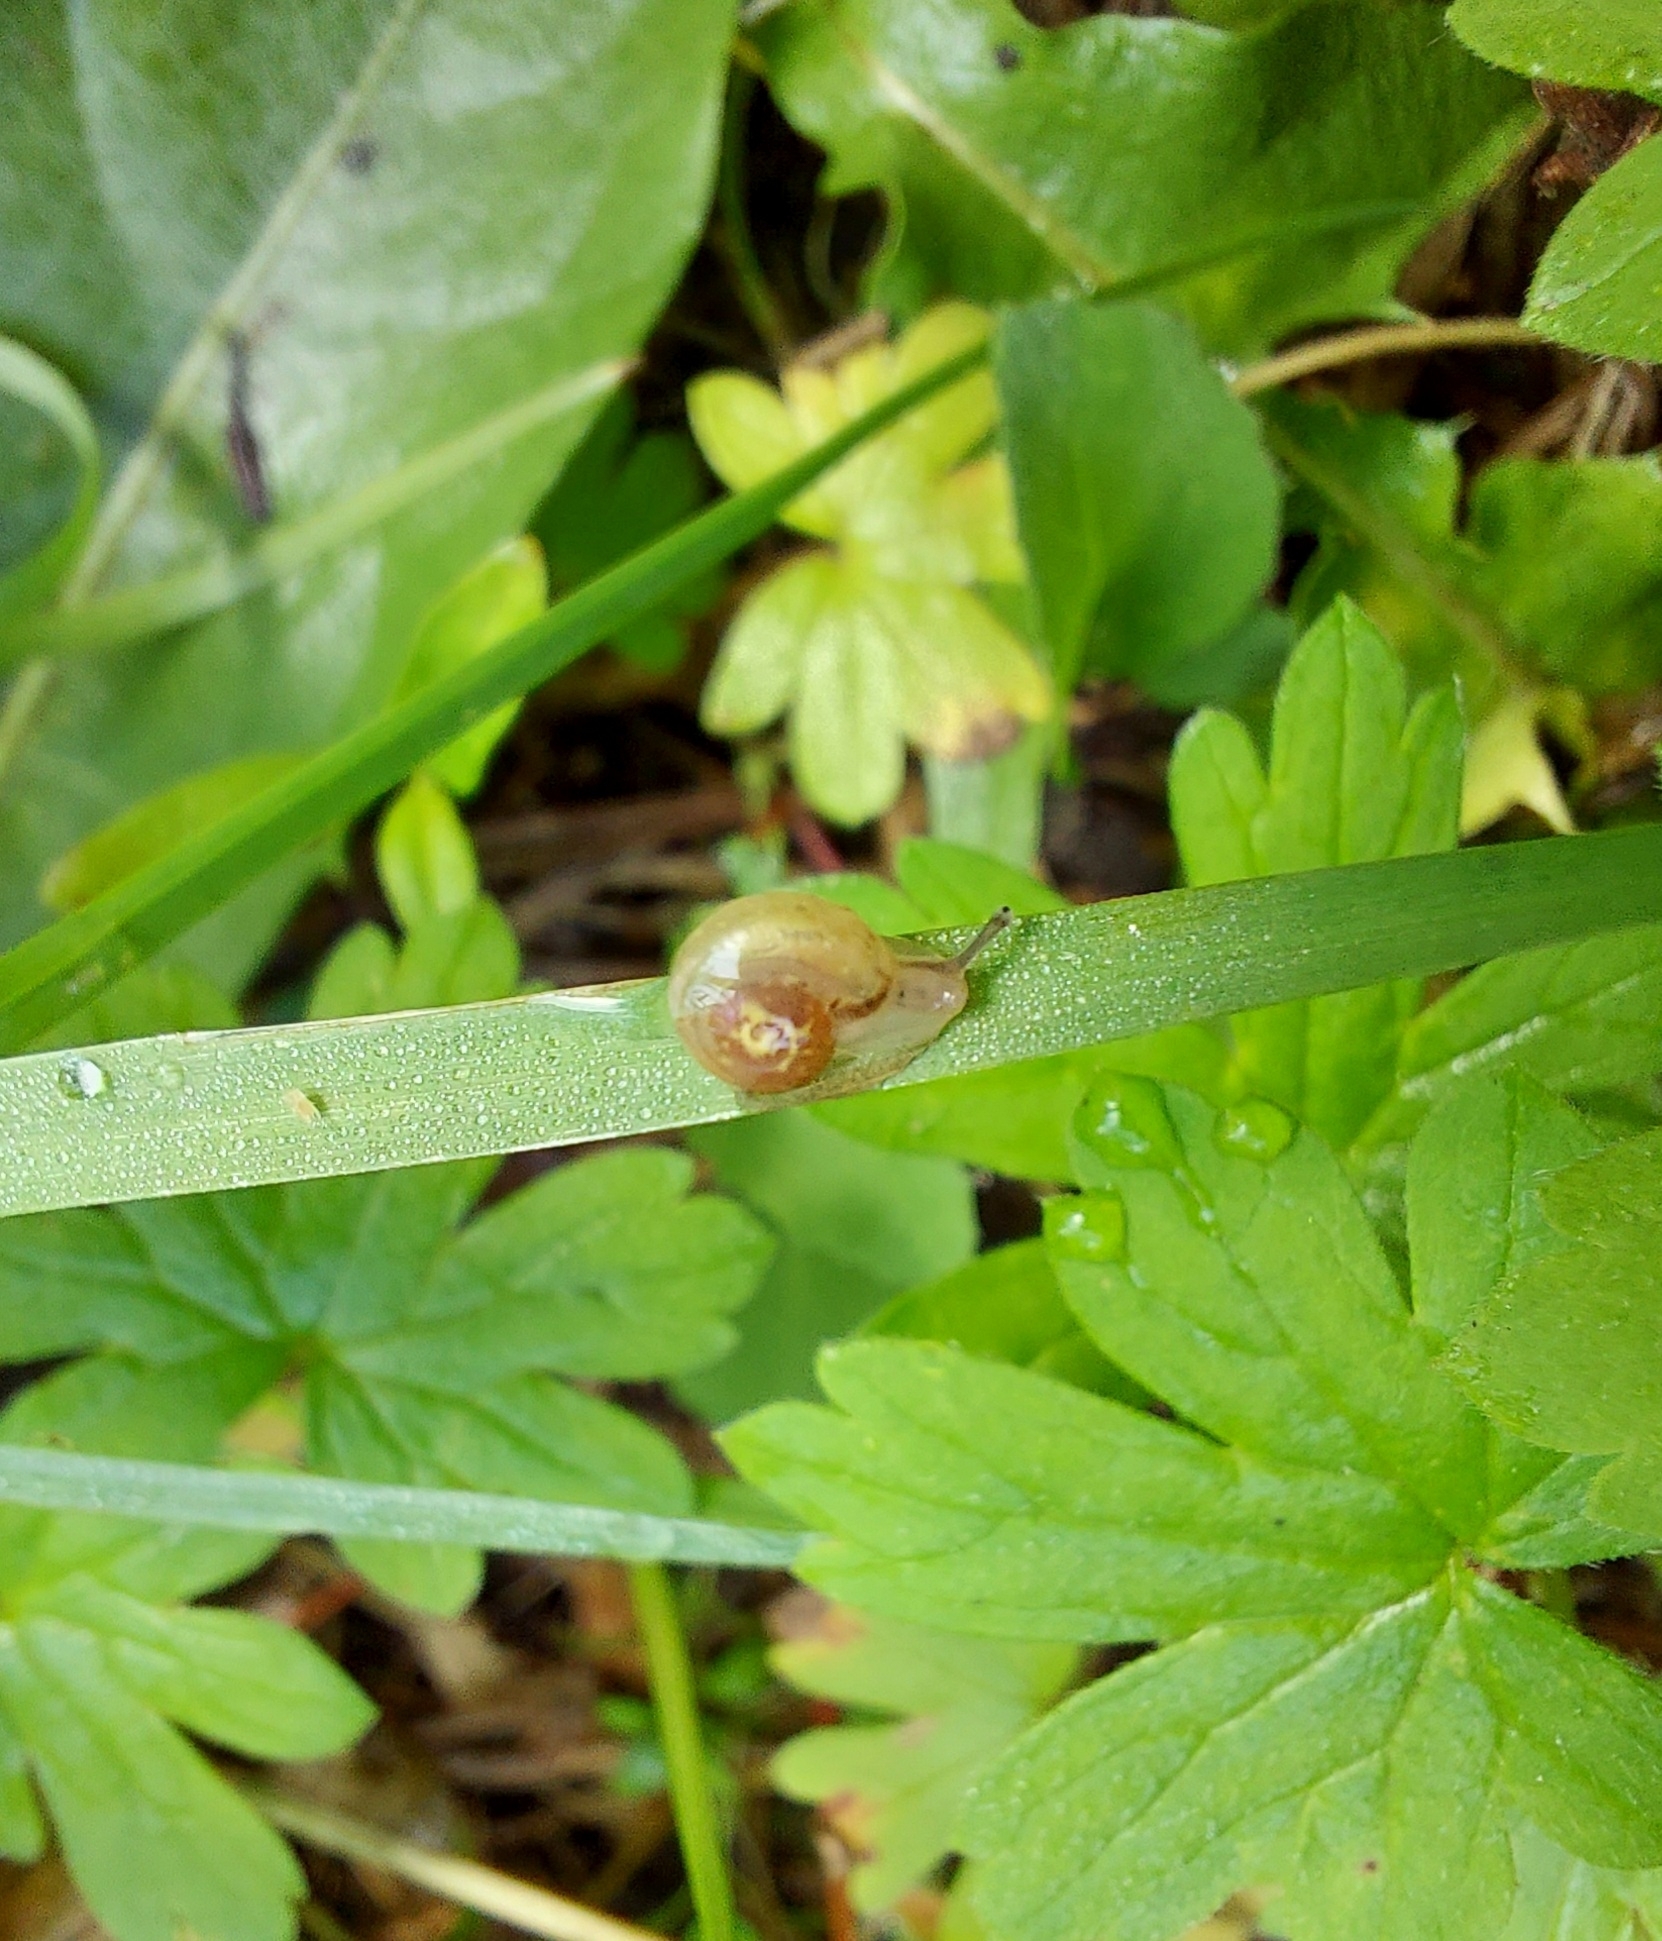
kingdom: Animalia
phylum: Mollusca
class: Gastropoda
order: Stylommatophora
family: Camaenidae
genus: Fruticicola
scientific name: Fruticicola fruticum
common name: Bush snail
